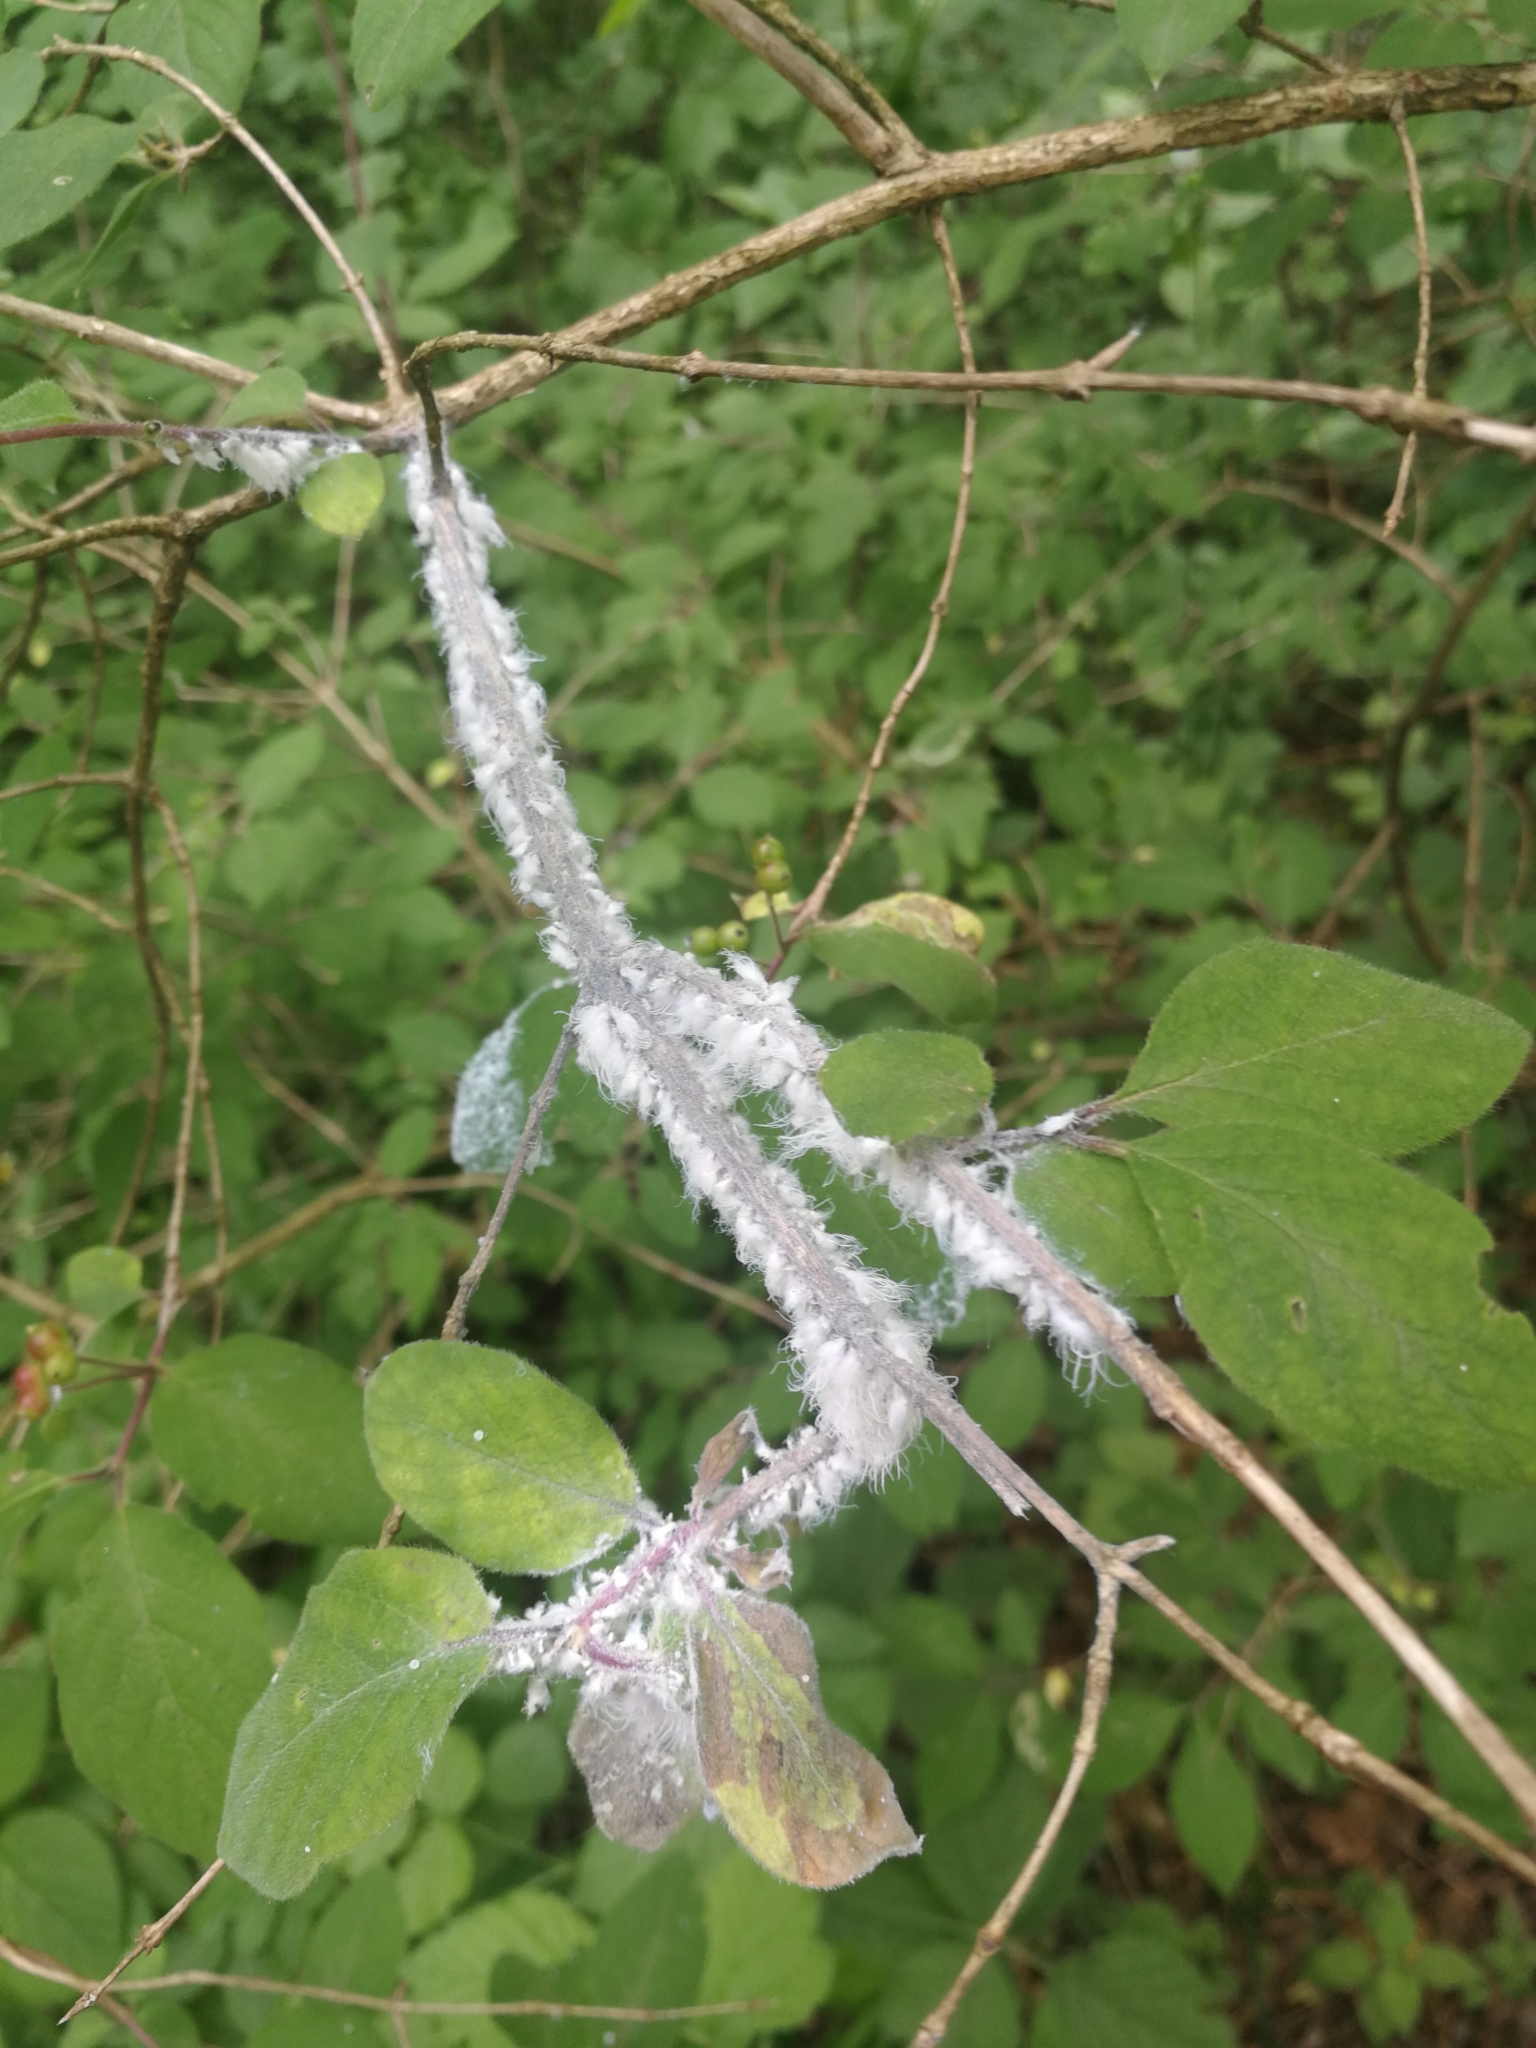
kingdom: Animalia
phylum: Arthropoda
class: Insecta
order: Hemiptera
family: Aphididae
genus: Prociphilus
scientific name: Prociphilus xylostei
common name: Aphid
